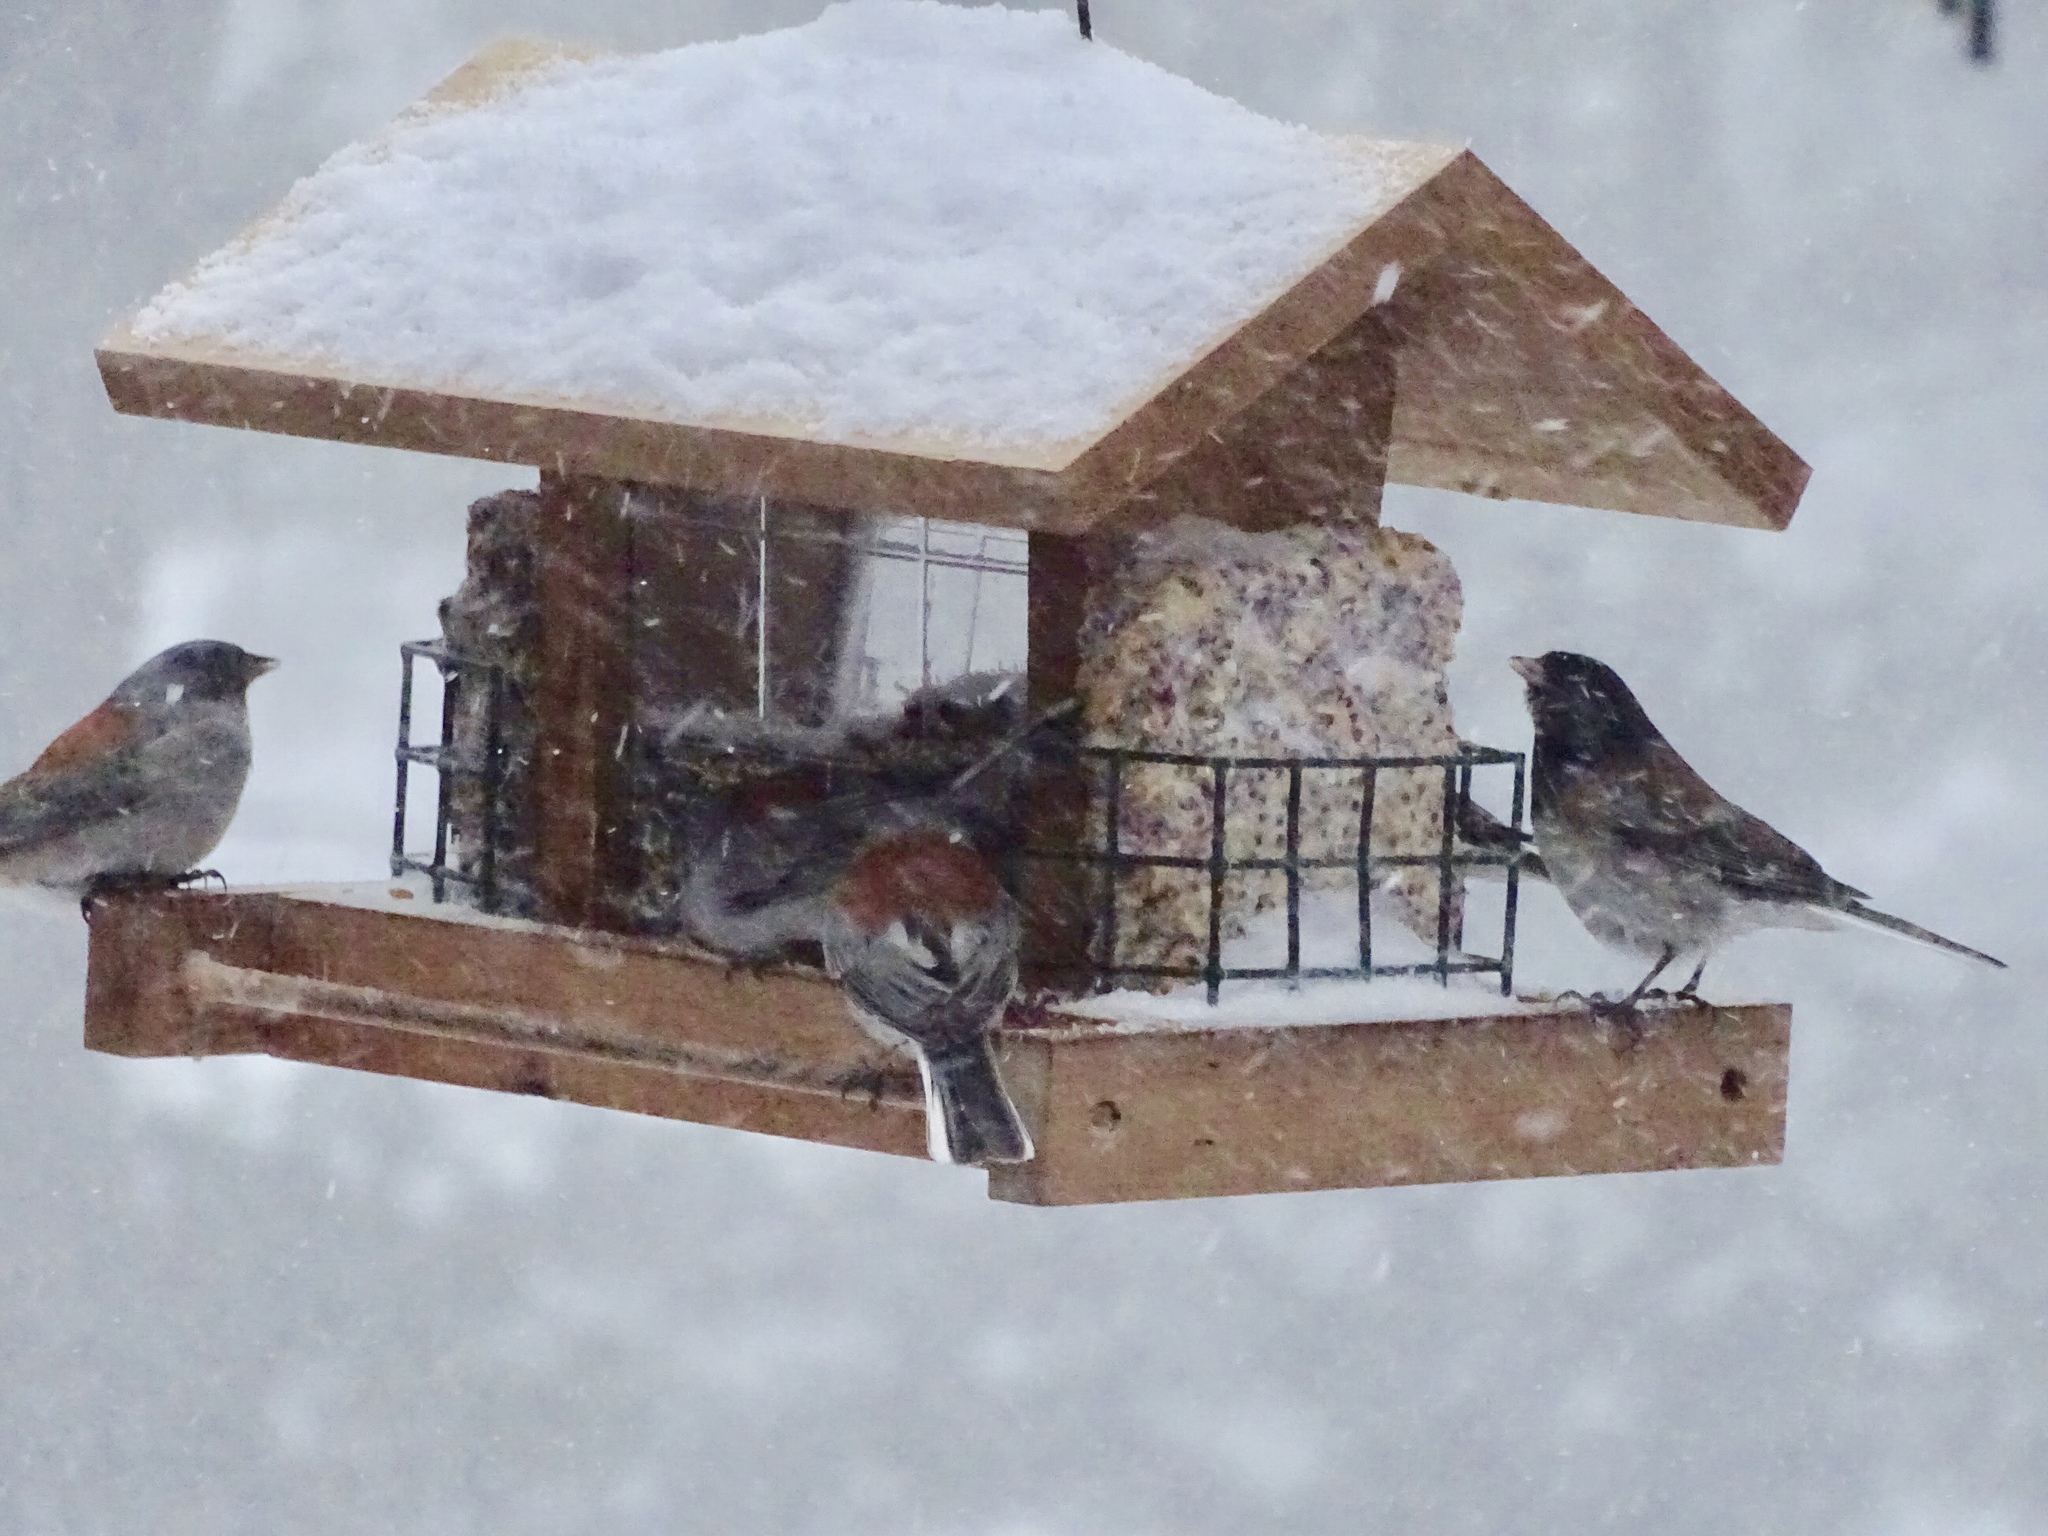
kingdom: Animalia
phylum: Chordata
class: Aves
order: Passeriformes
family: Passerellidae
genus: Junco
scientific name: Junco hyemalis
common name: Dark-eyed junco
